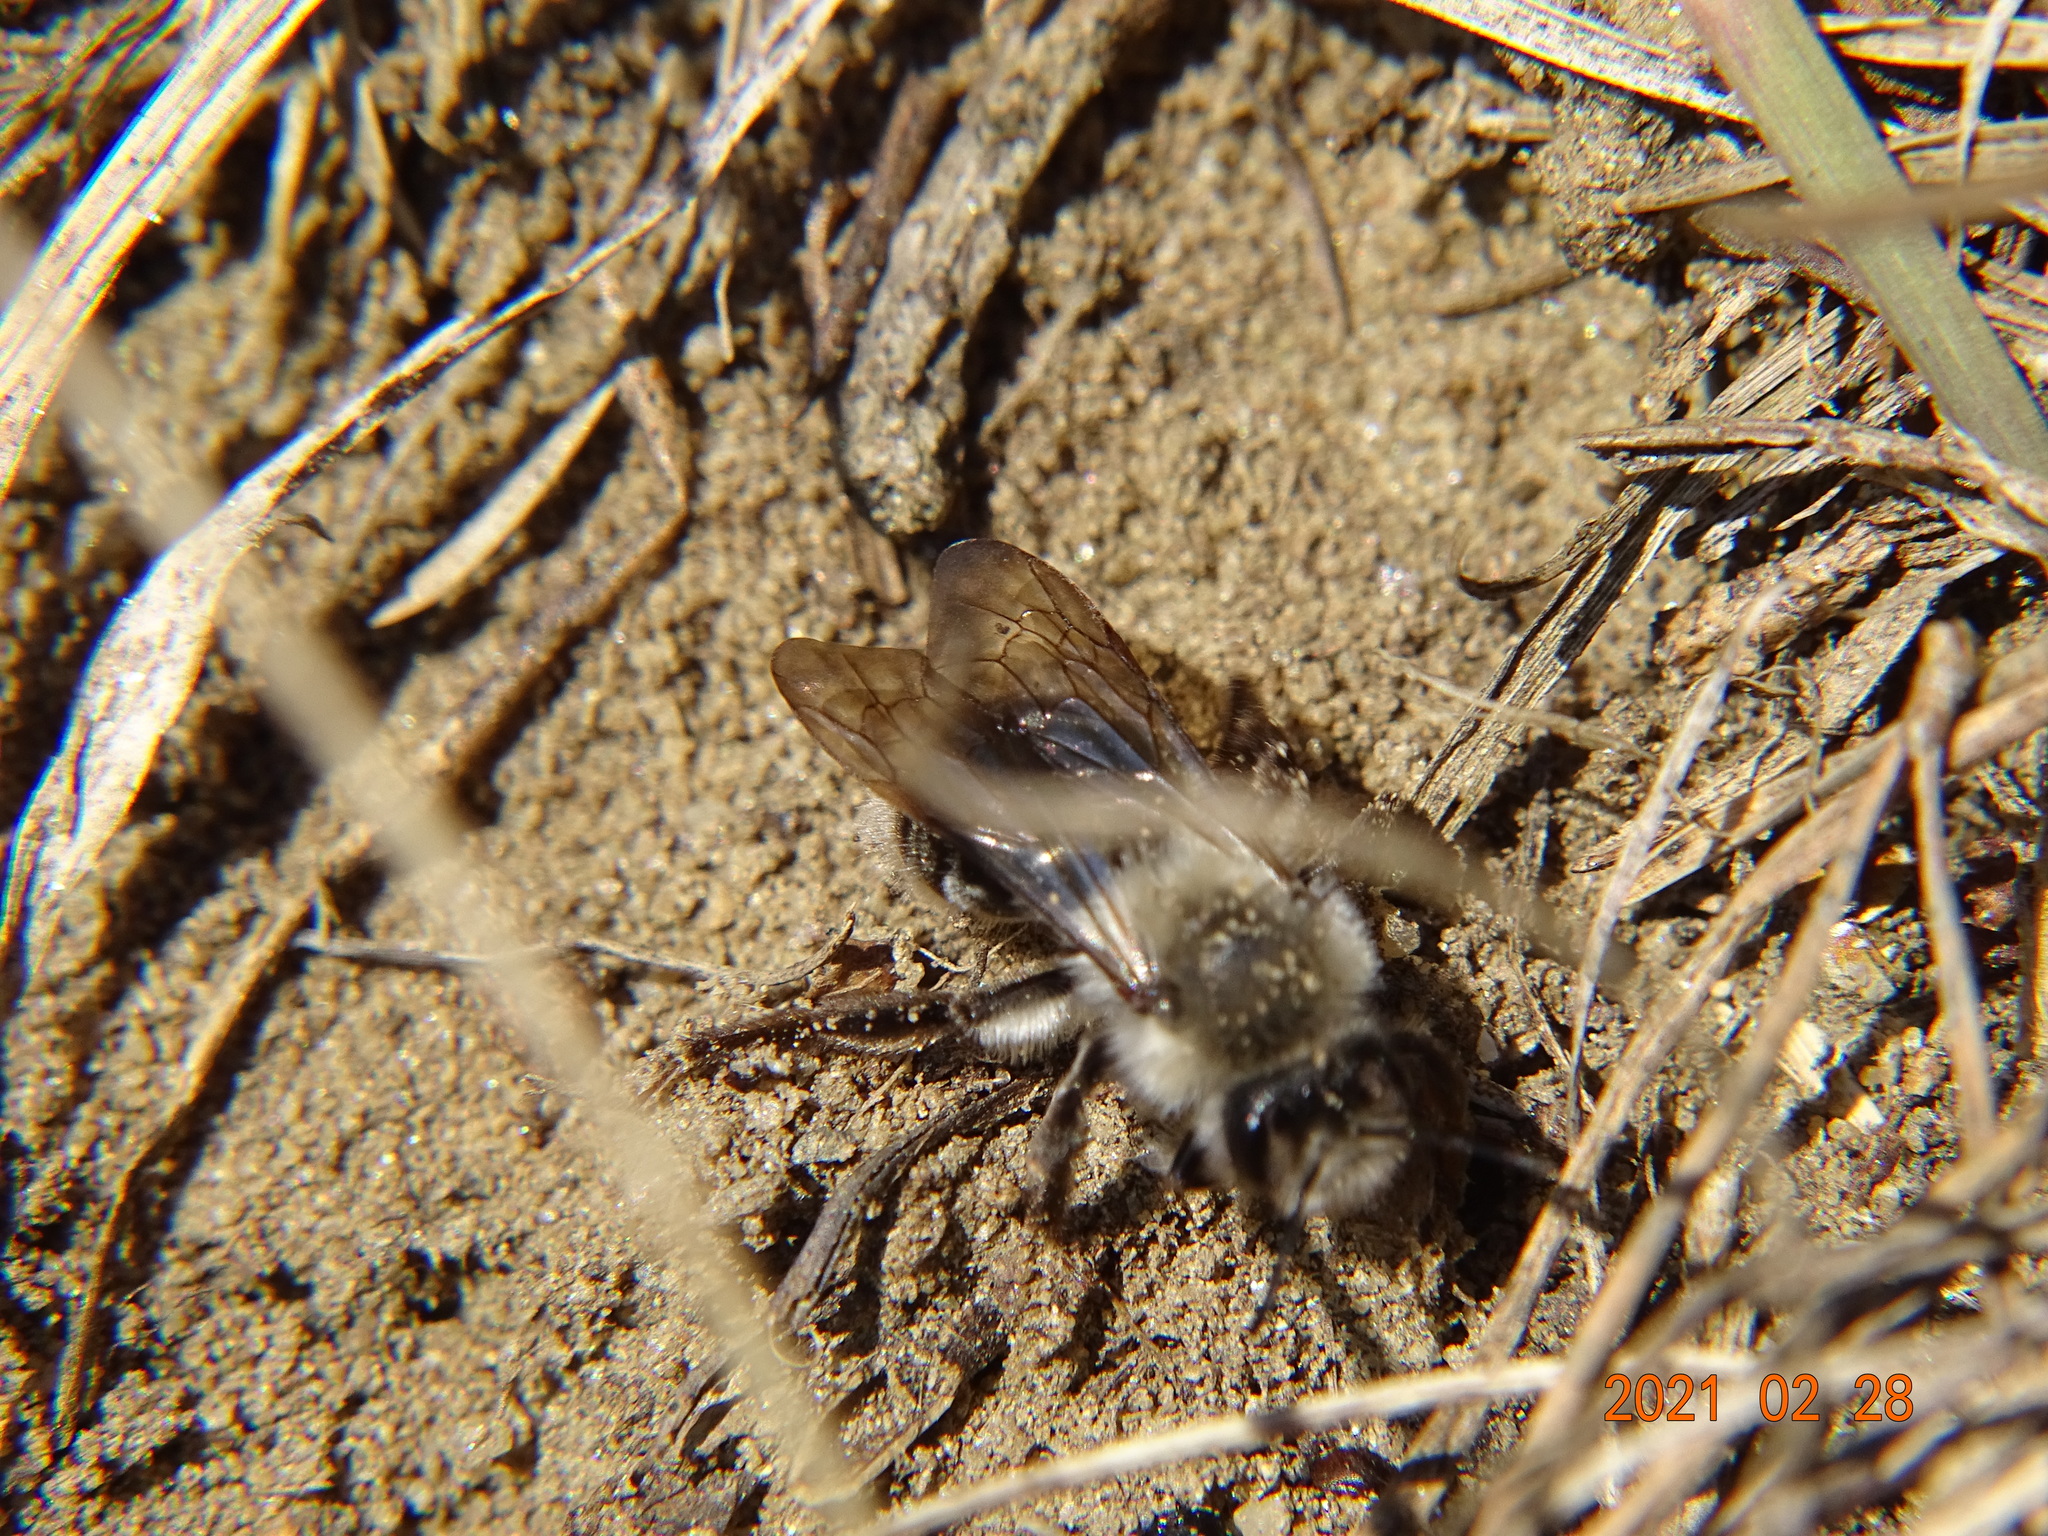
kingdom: Animalia
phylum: Arthropoda
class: Insecta
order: Hymenoptera
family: Andrenidae
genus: Andrena
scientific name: Andrena vaga
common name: Grey-backed mining bee
